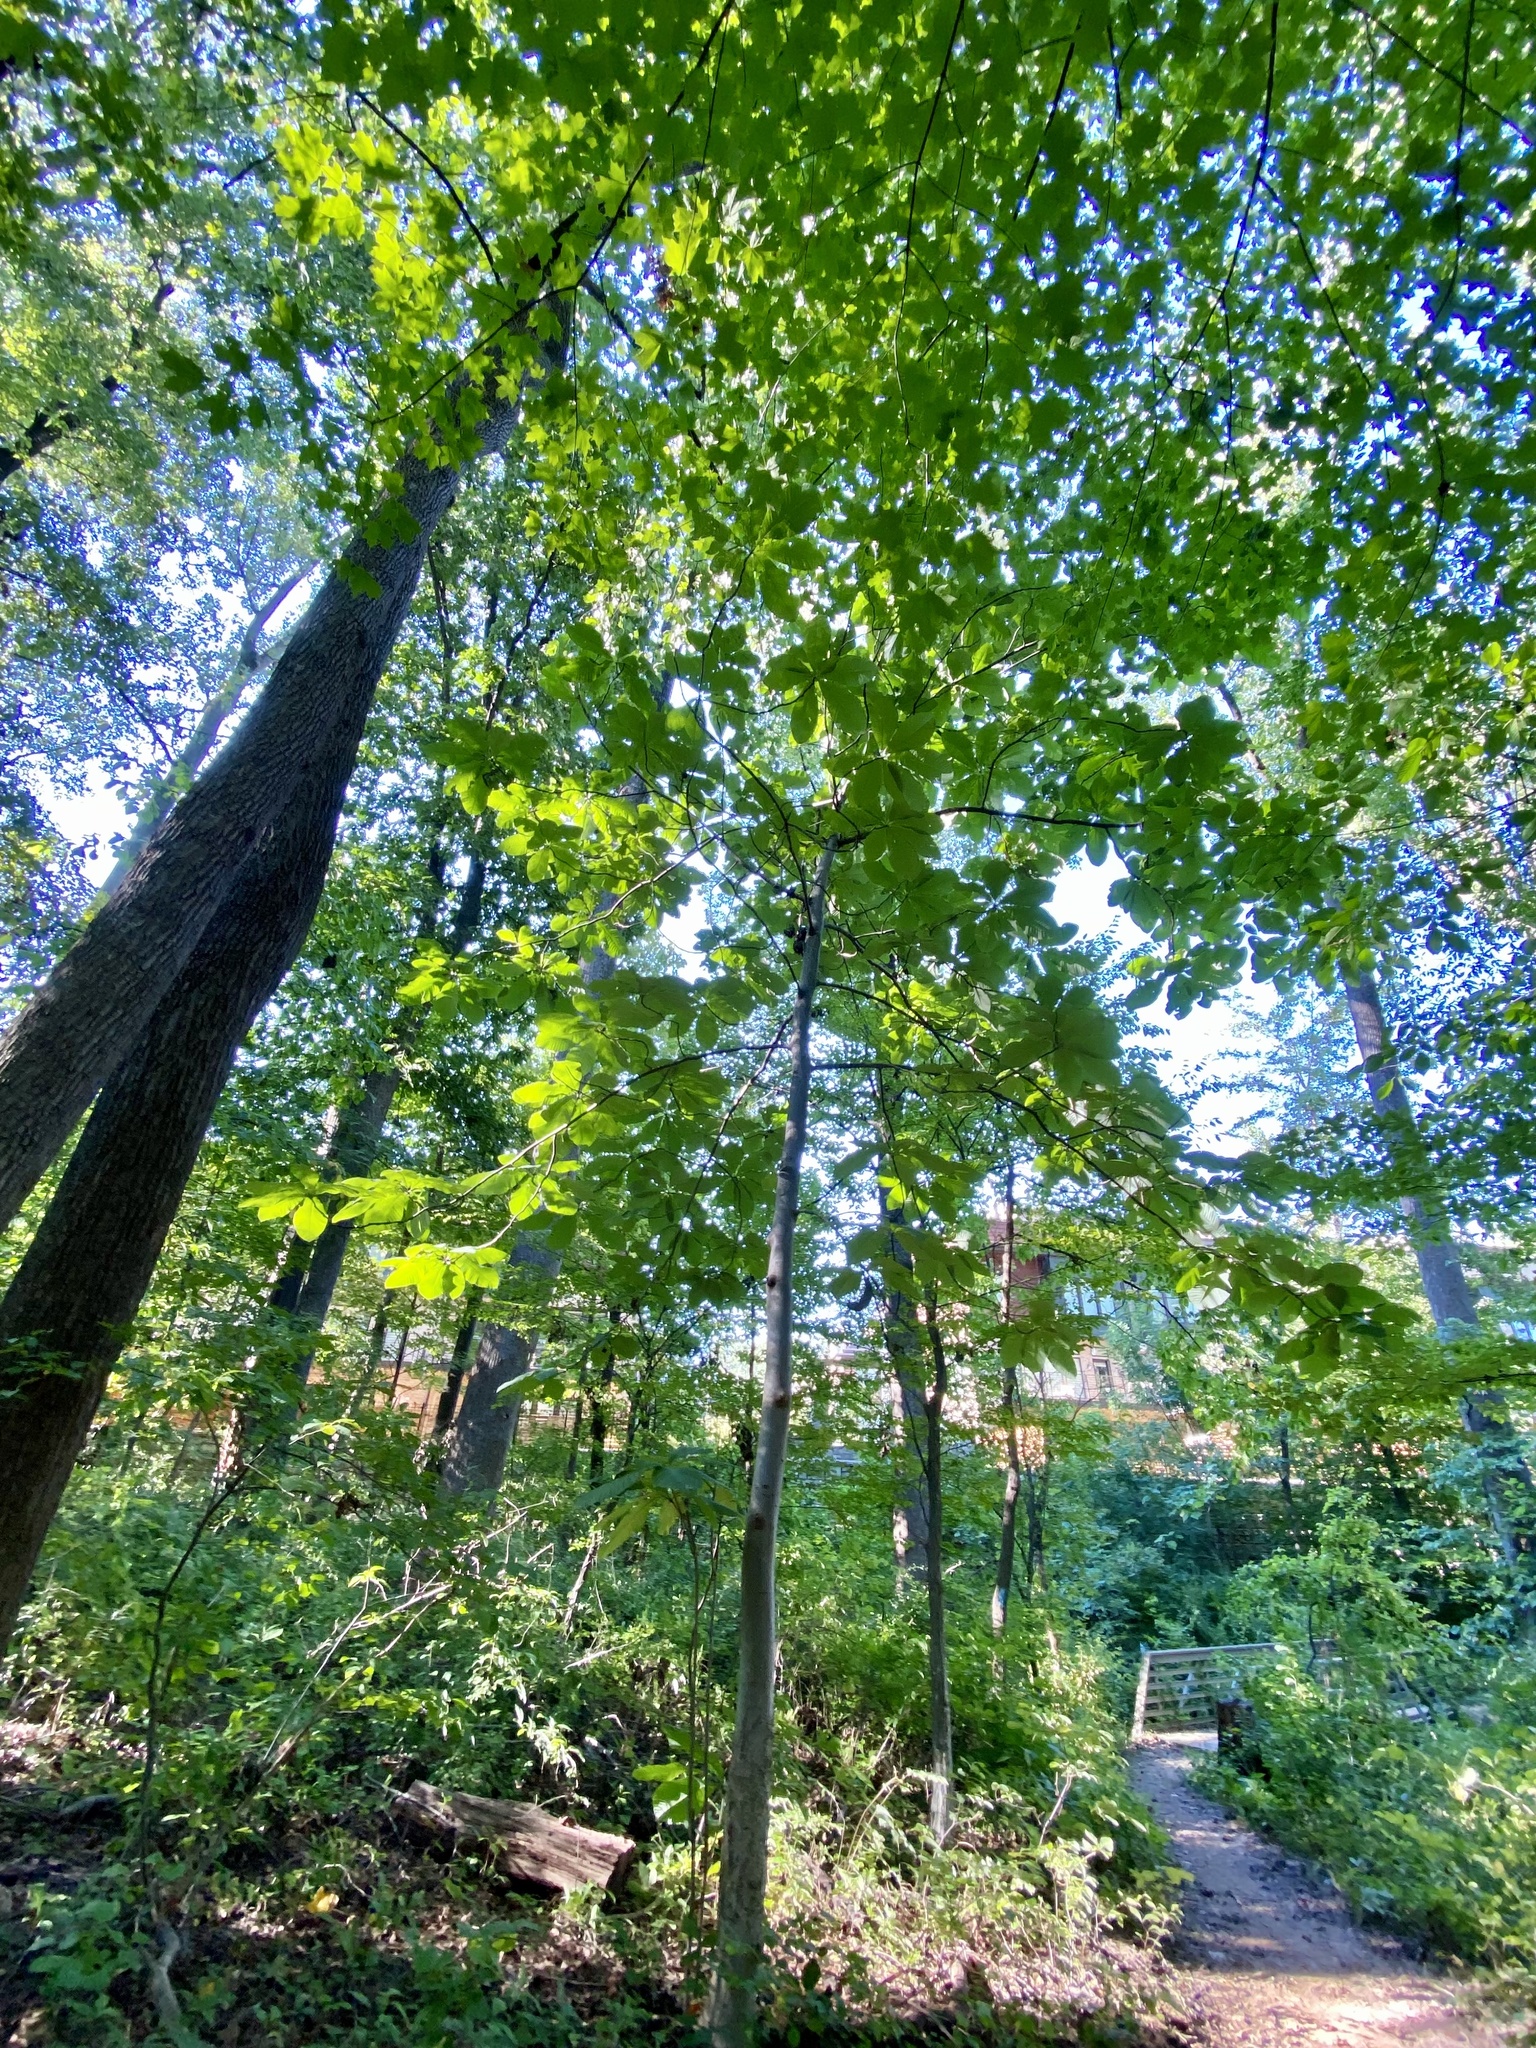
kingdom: Plantae
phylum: Tracheophyta
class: Magnoliopsida
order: Magnoliales
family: Magnoliaceae
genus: Magnolia
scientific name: Magnolia tripetala
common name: Umbrella magnolia
